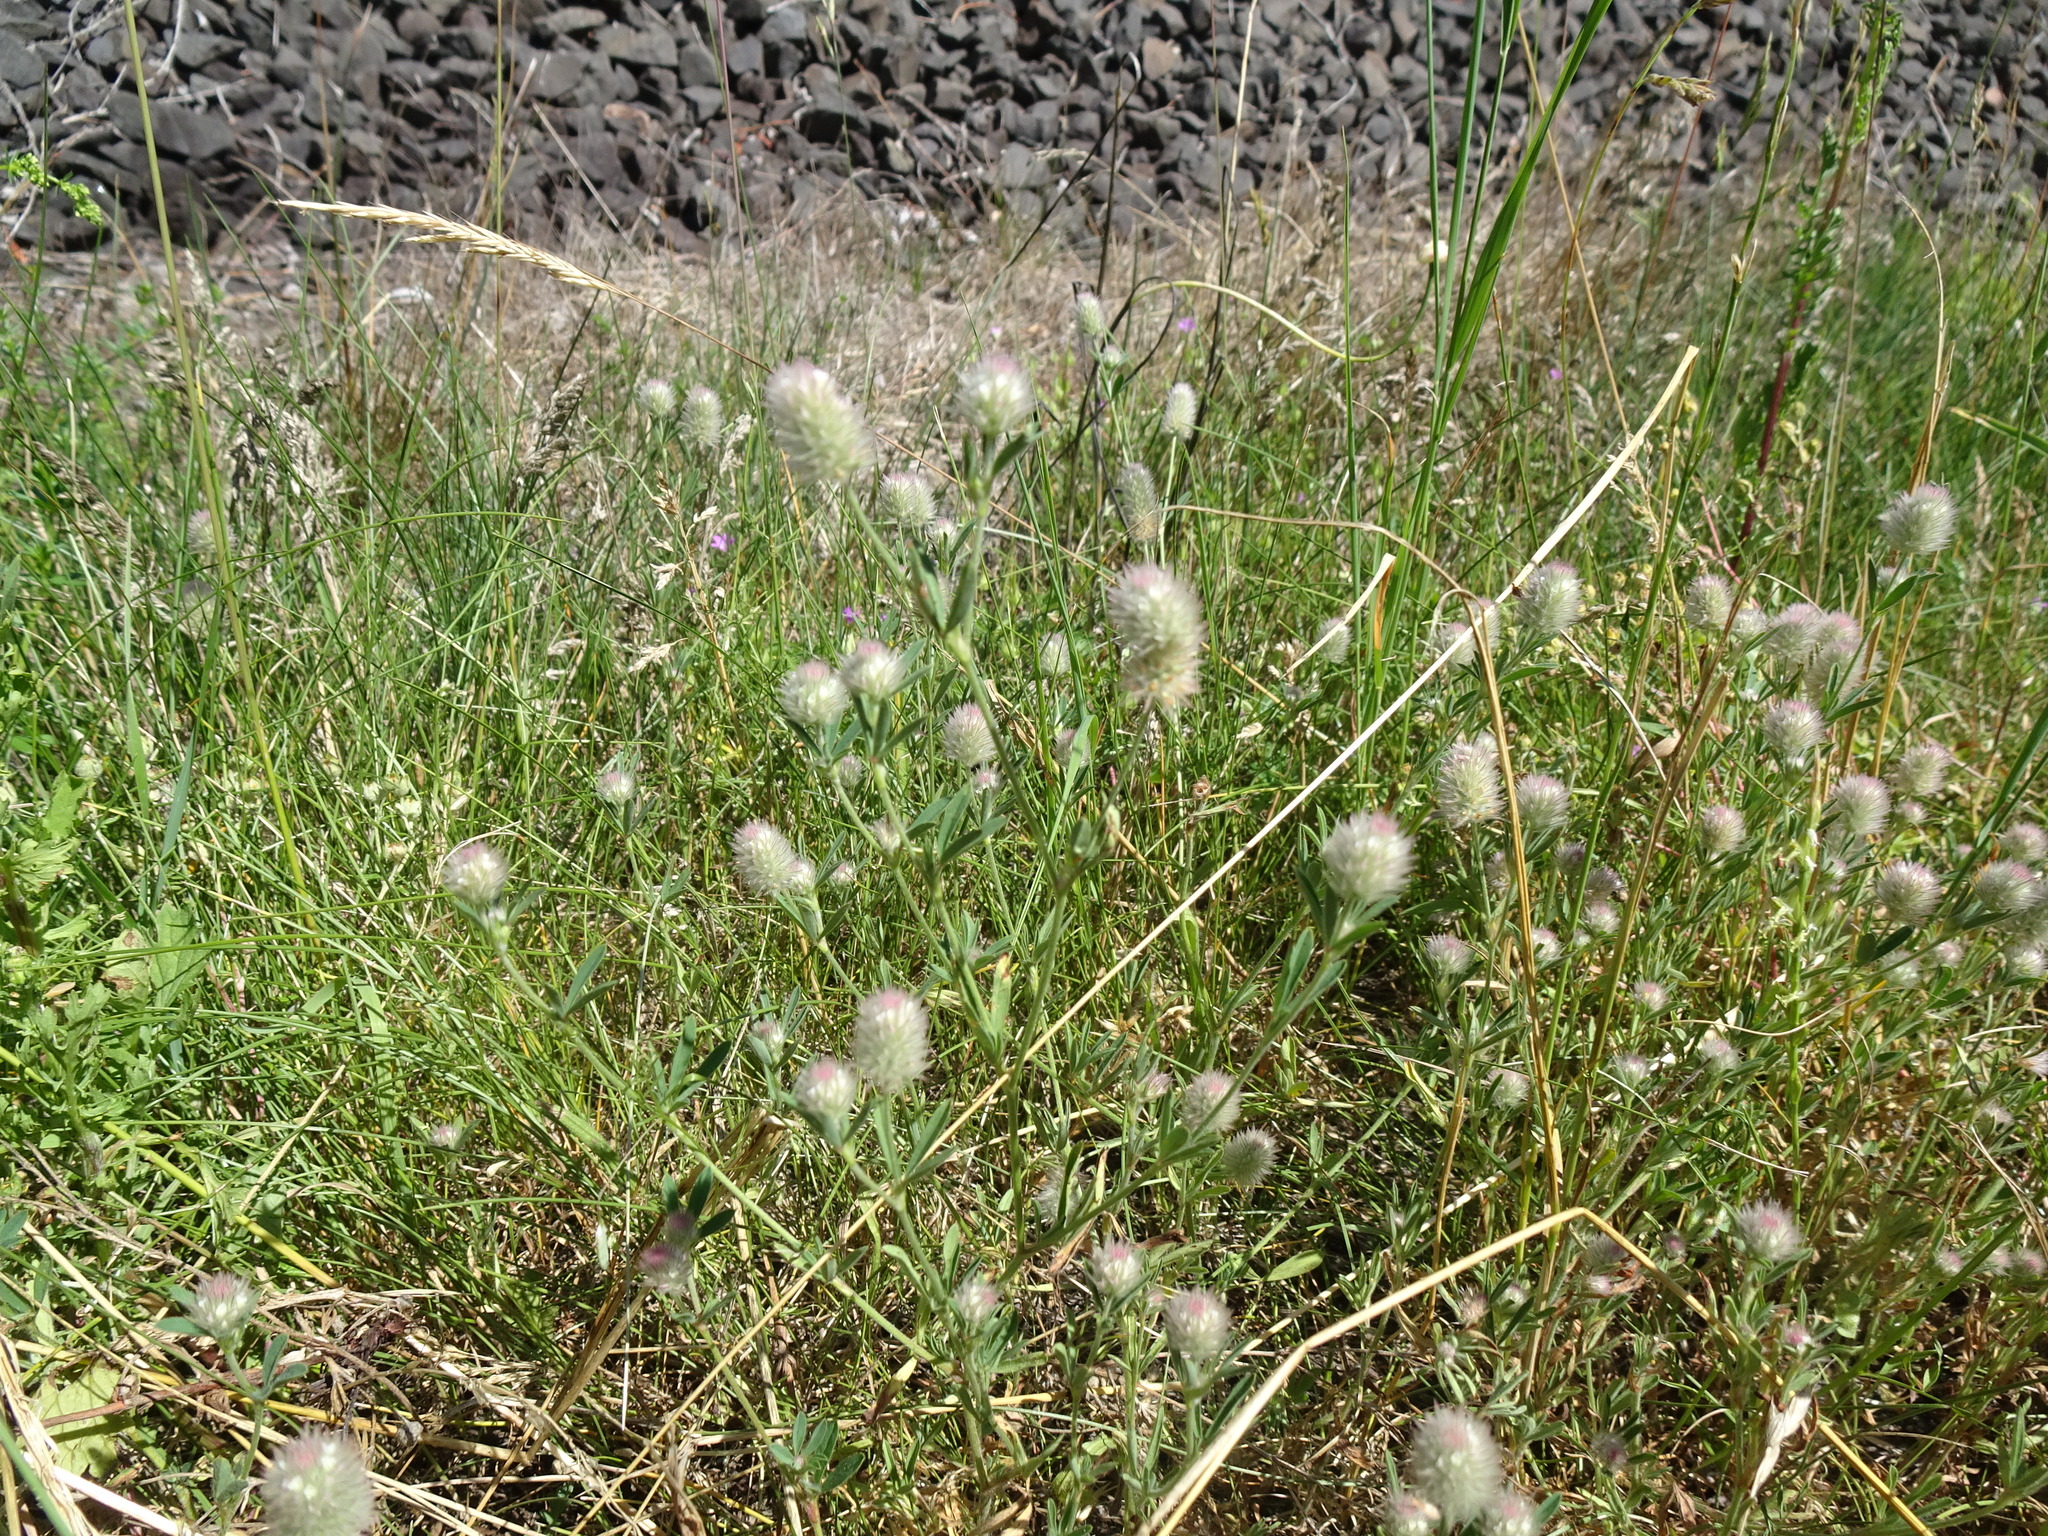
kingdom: Plantae
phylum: Tracheophyta
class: Magnoliopsida
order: Fabales
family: Fabaceae
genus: Trifolium
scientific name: Trifolium arvense
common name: Hare's-foot clover
